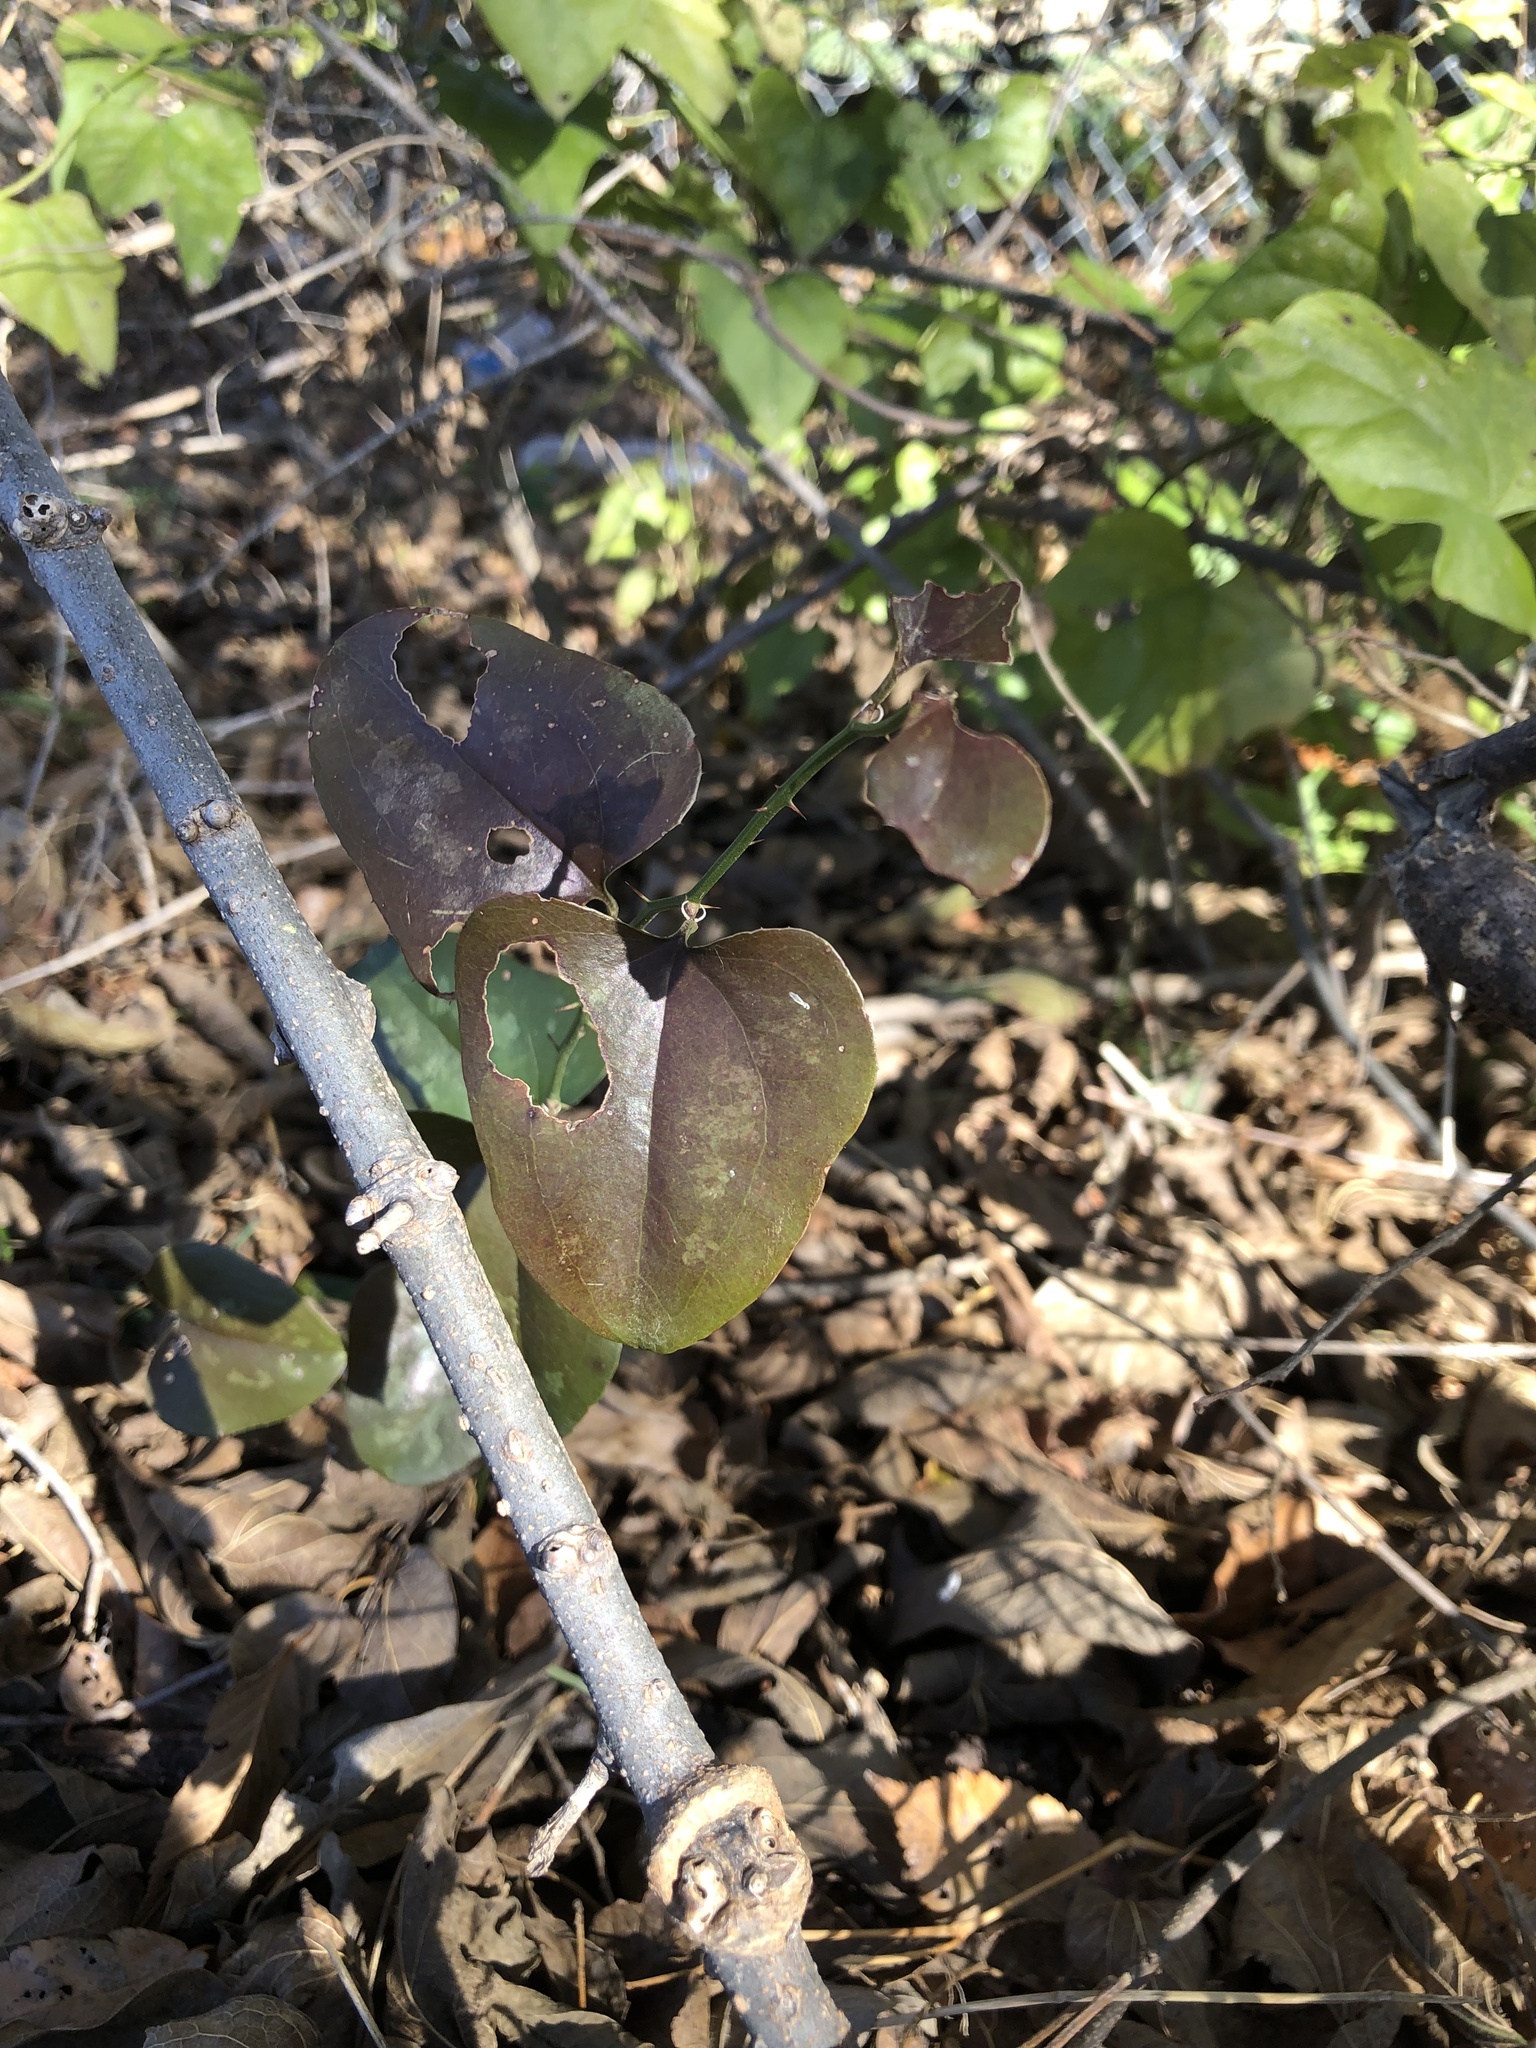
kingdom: Plantae
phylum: Tracheophyta
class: Liliopsida
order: Liliales
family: Smilacaceae
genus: Smilax
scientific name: Smilax bona-nox
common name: Catbrier
